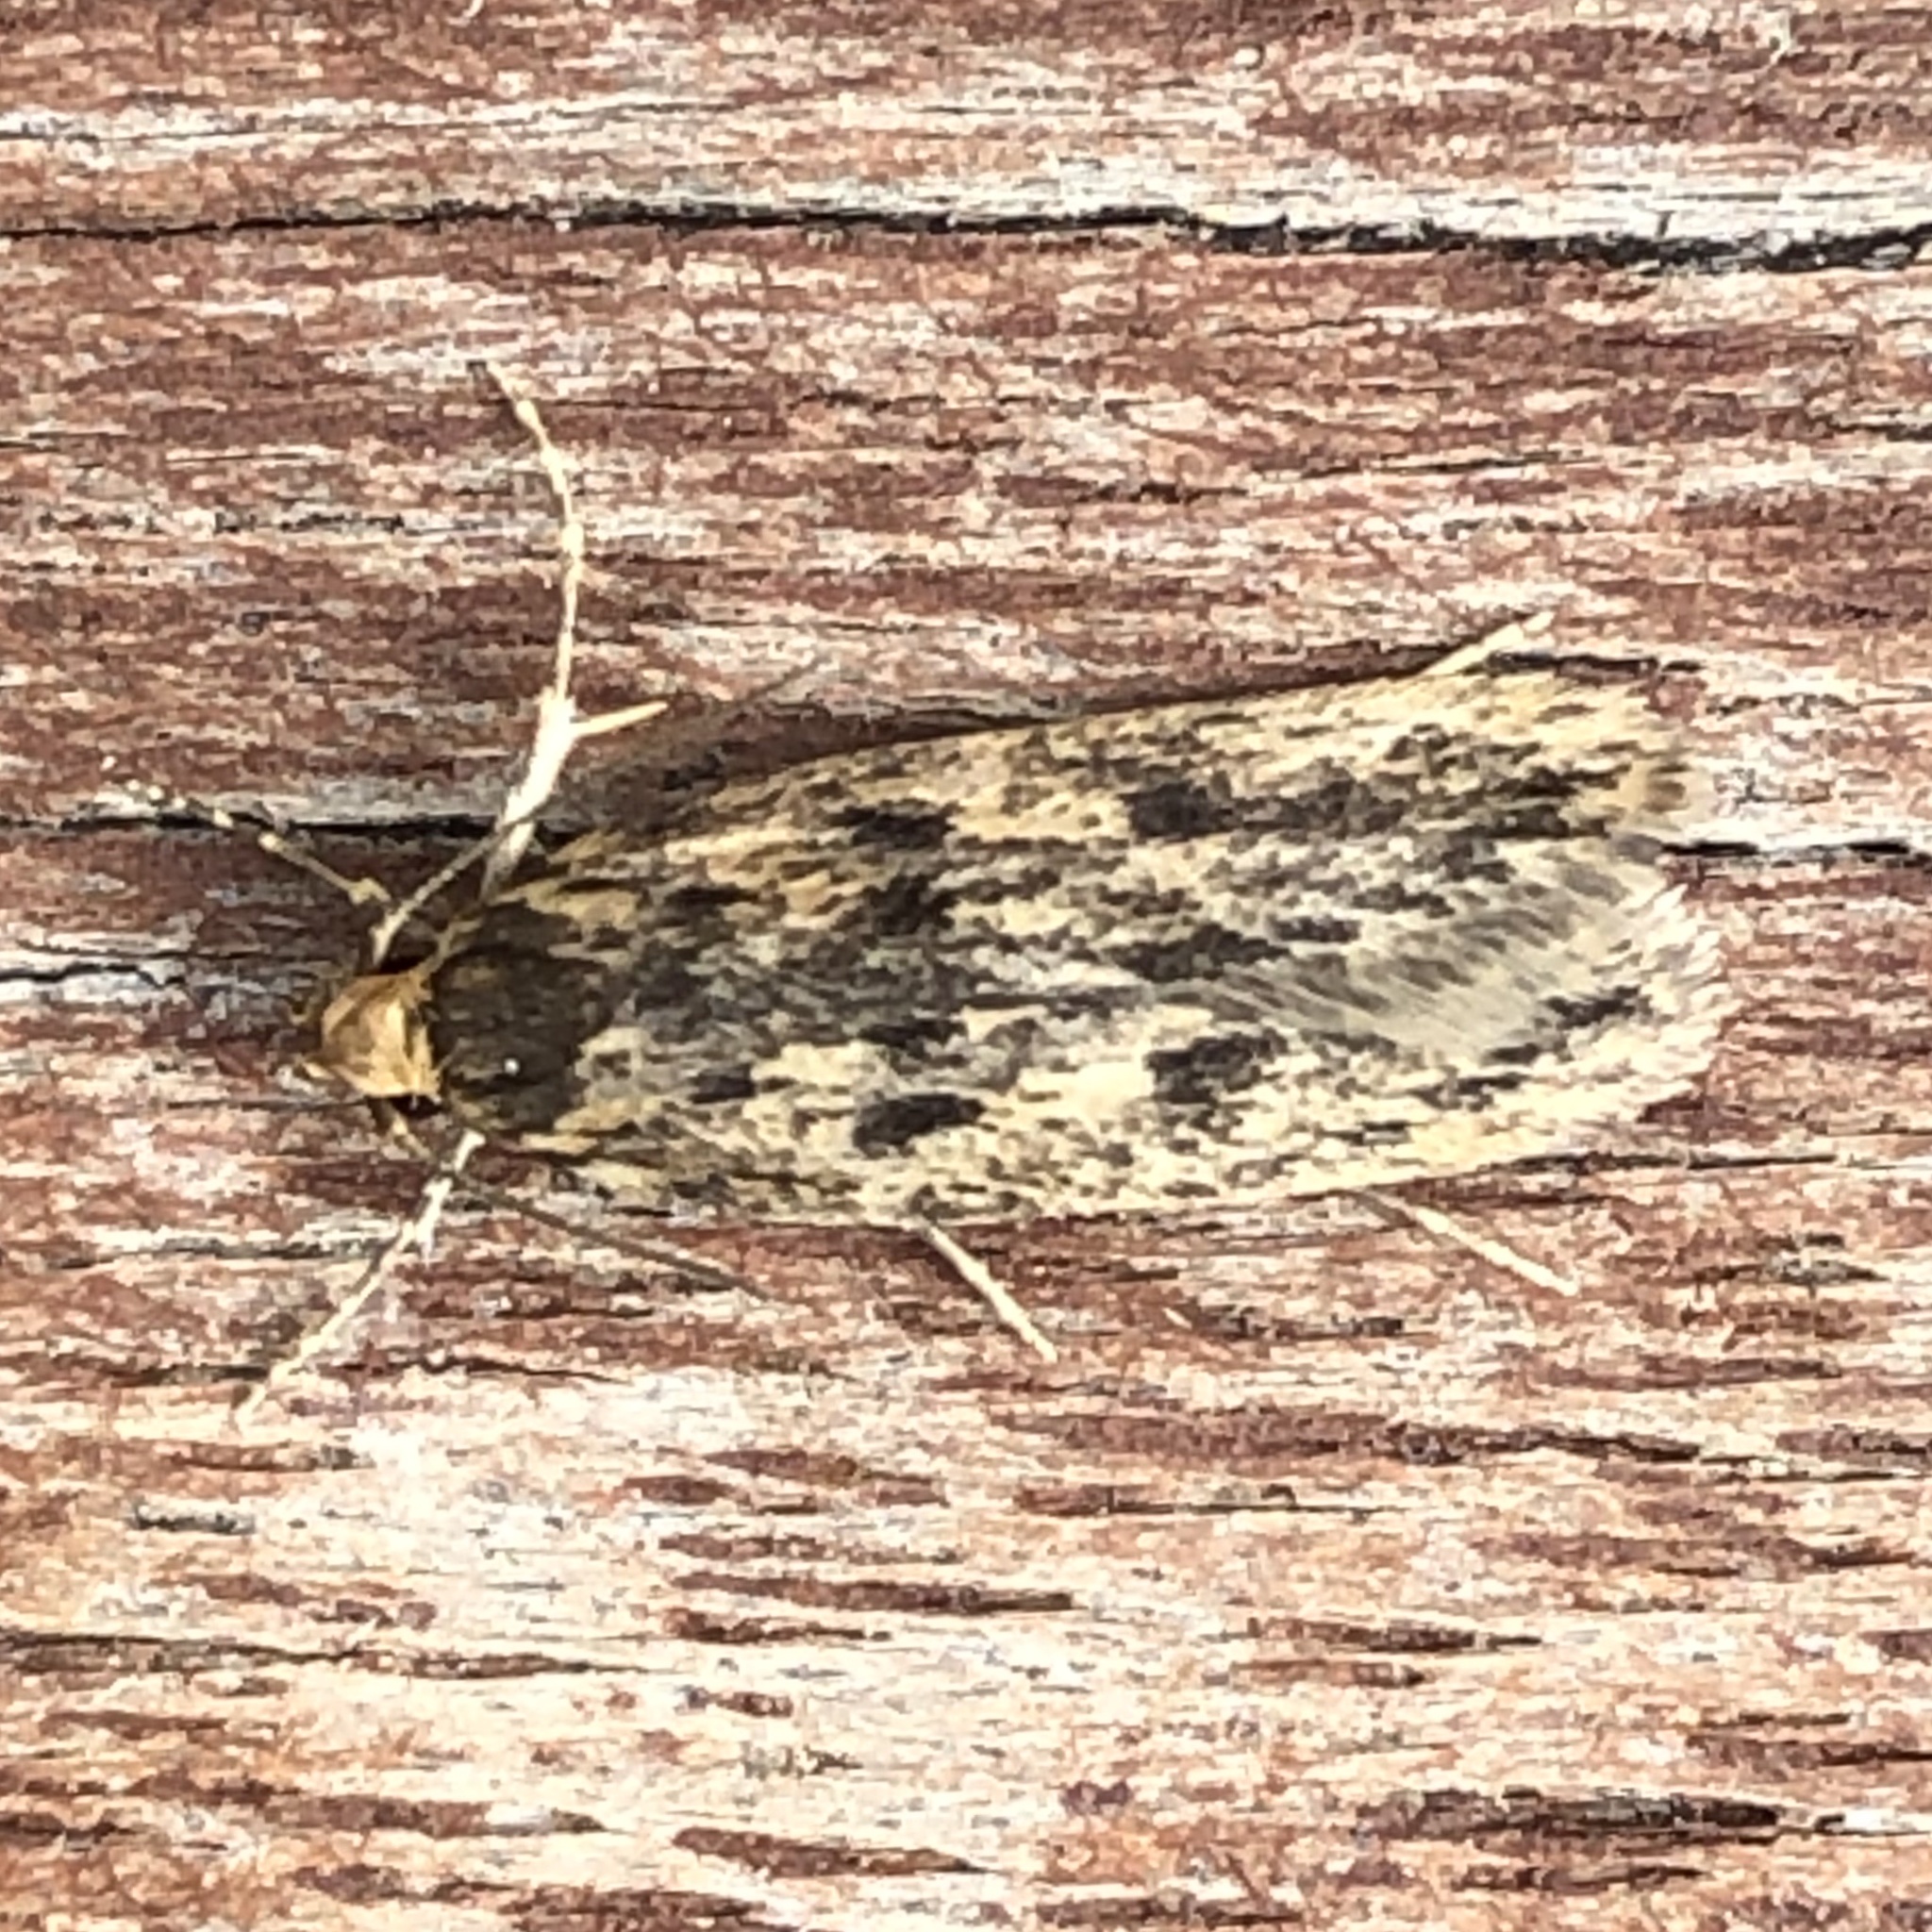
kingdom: Animalia
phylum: Arthropoda
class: Insecta
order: Lepidoptera
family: Oecophoridae
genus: Hofmannophila
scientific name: Hofmannophila pseudospretella
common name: Brown house moth
